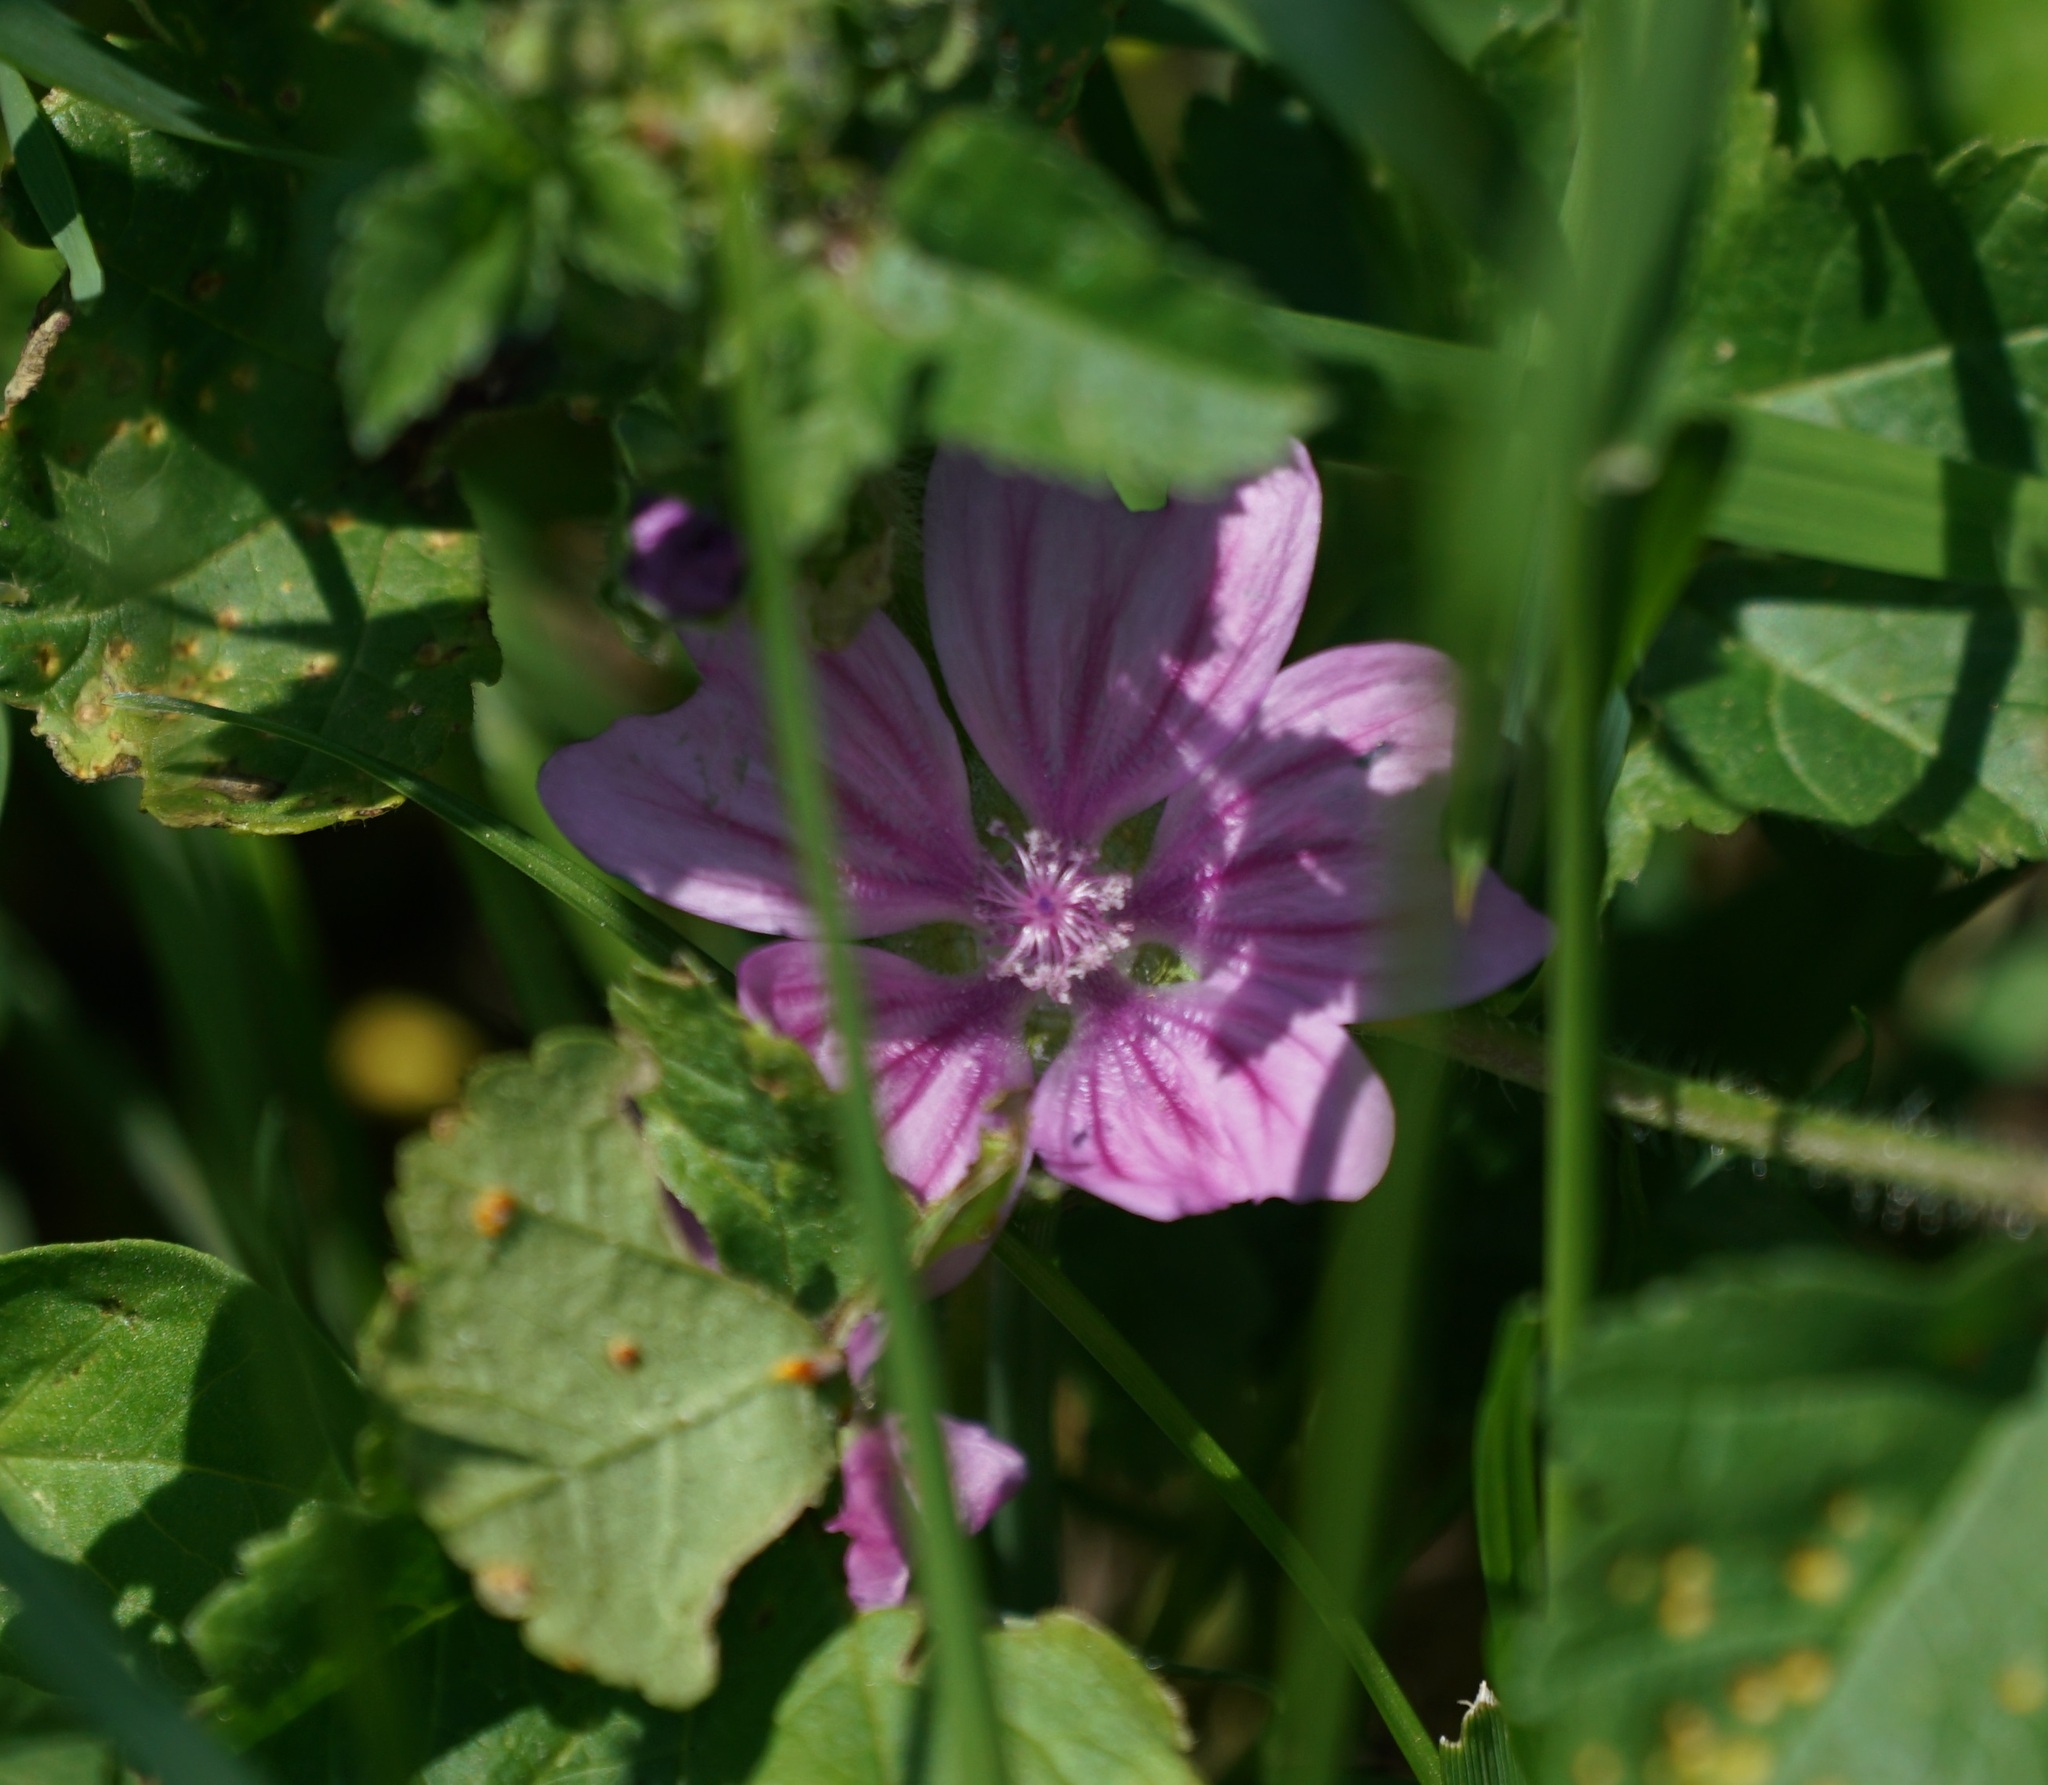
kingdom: Plantae
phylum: Tracheophyta
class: Magnoliopsida
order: Malvales
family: Malvaceae
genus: Malva
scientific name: Malva sylvestris
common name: Common mallow
